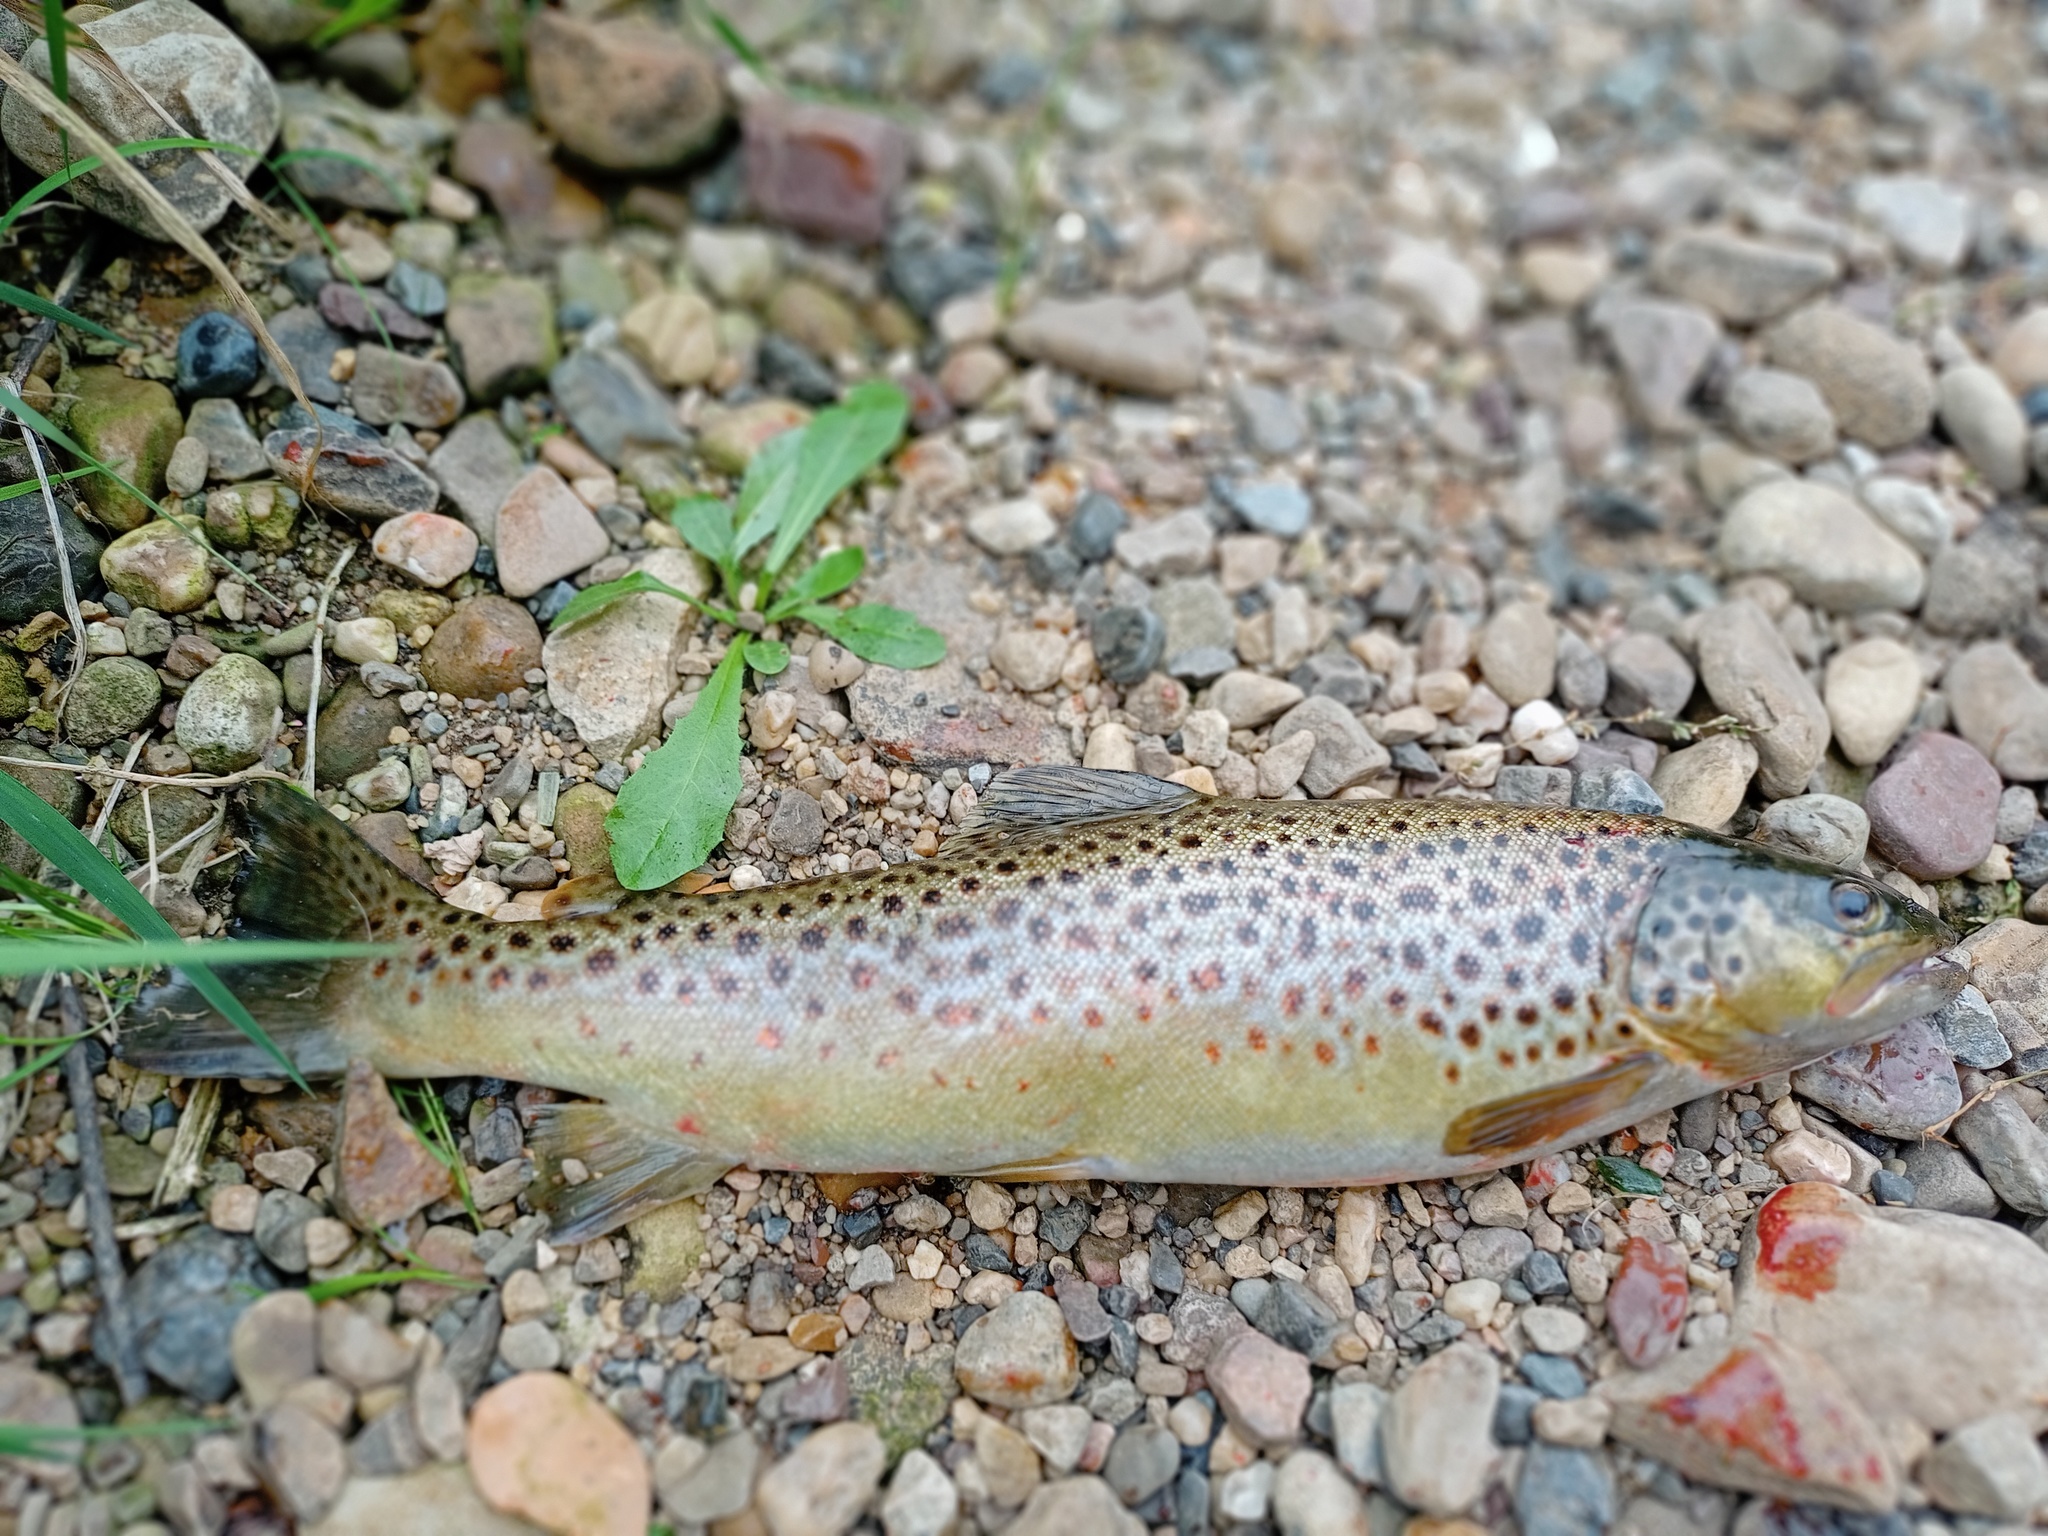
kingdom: Animalia
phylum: Chordata
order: Salmoniformes
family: Salmonidae
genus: Salmo
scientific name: Salmo trutta
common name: Brown trout
